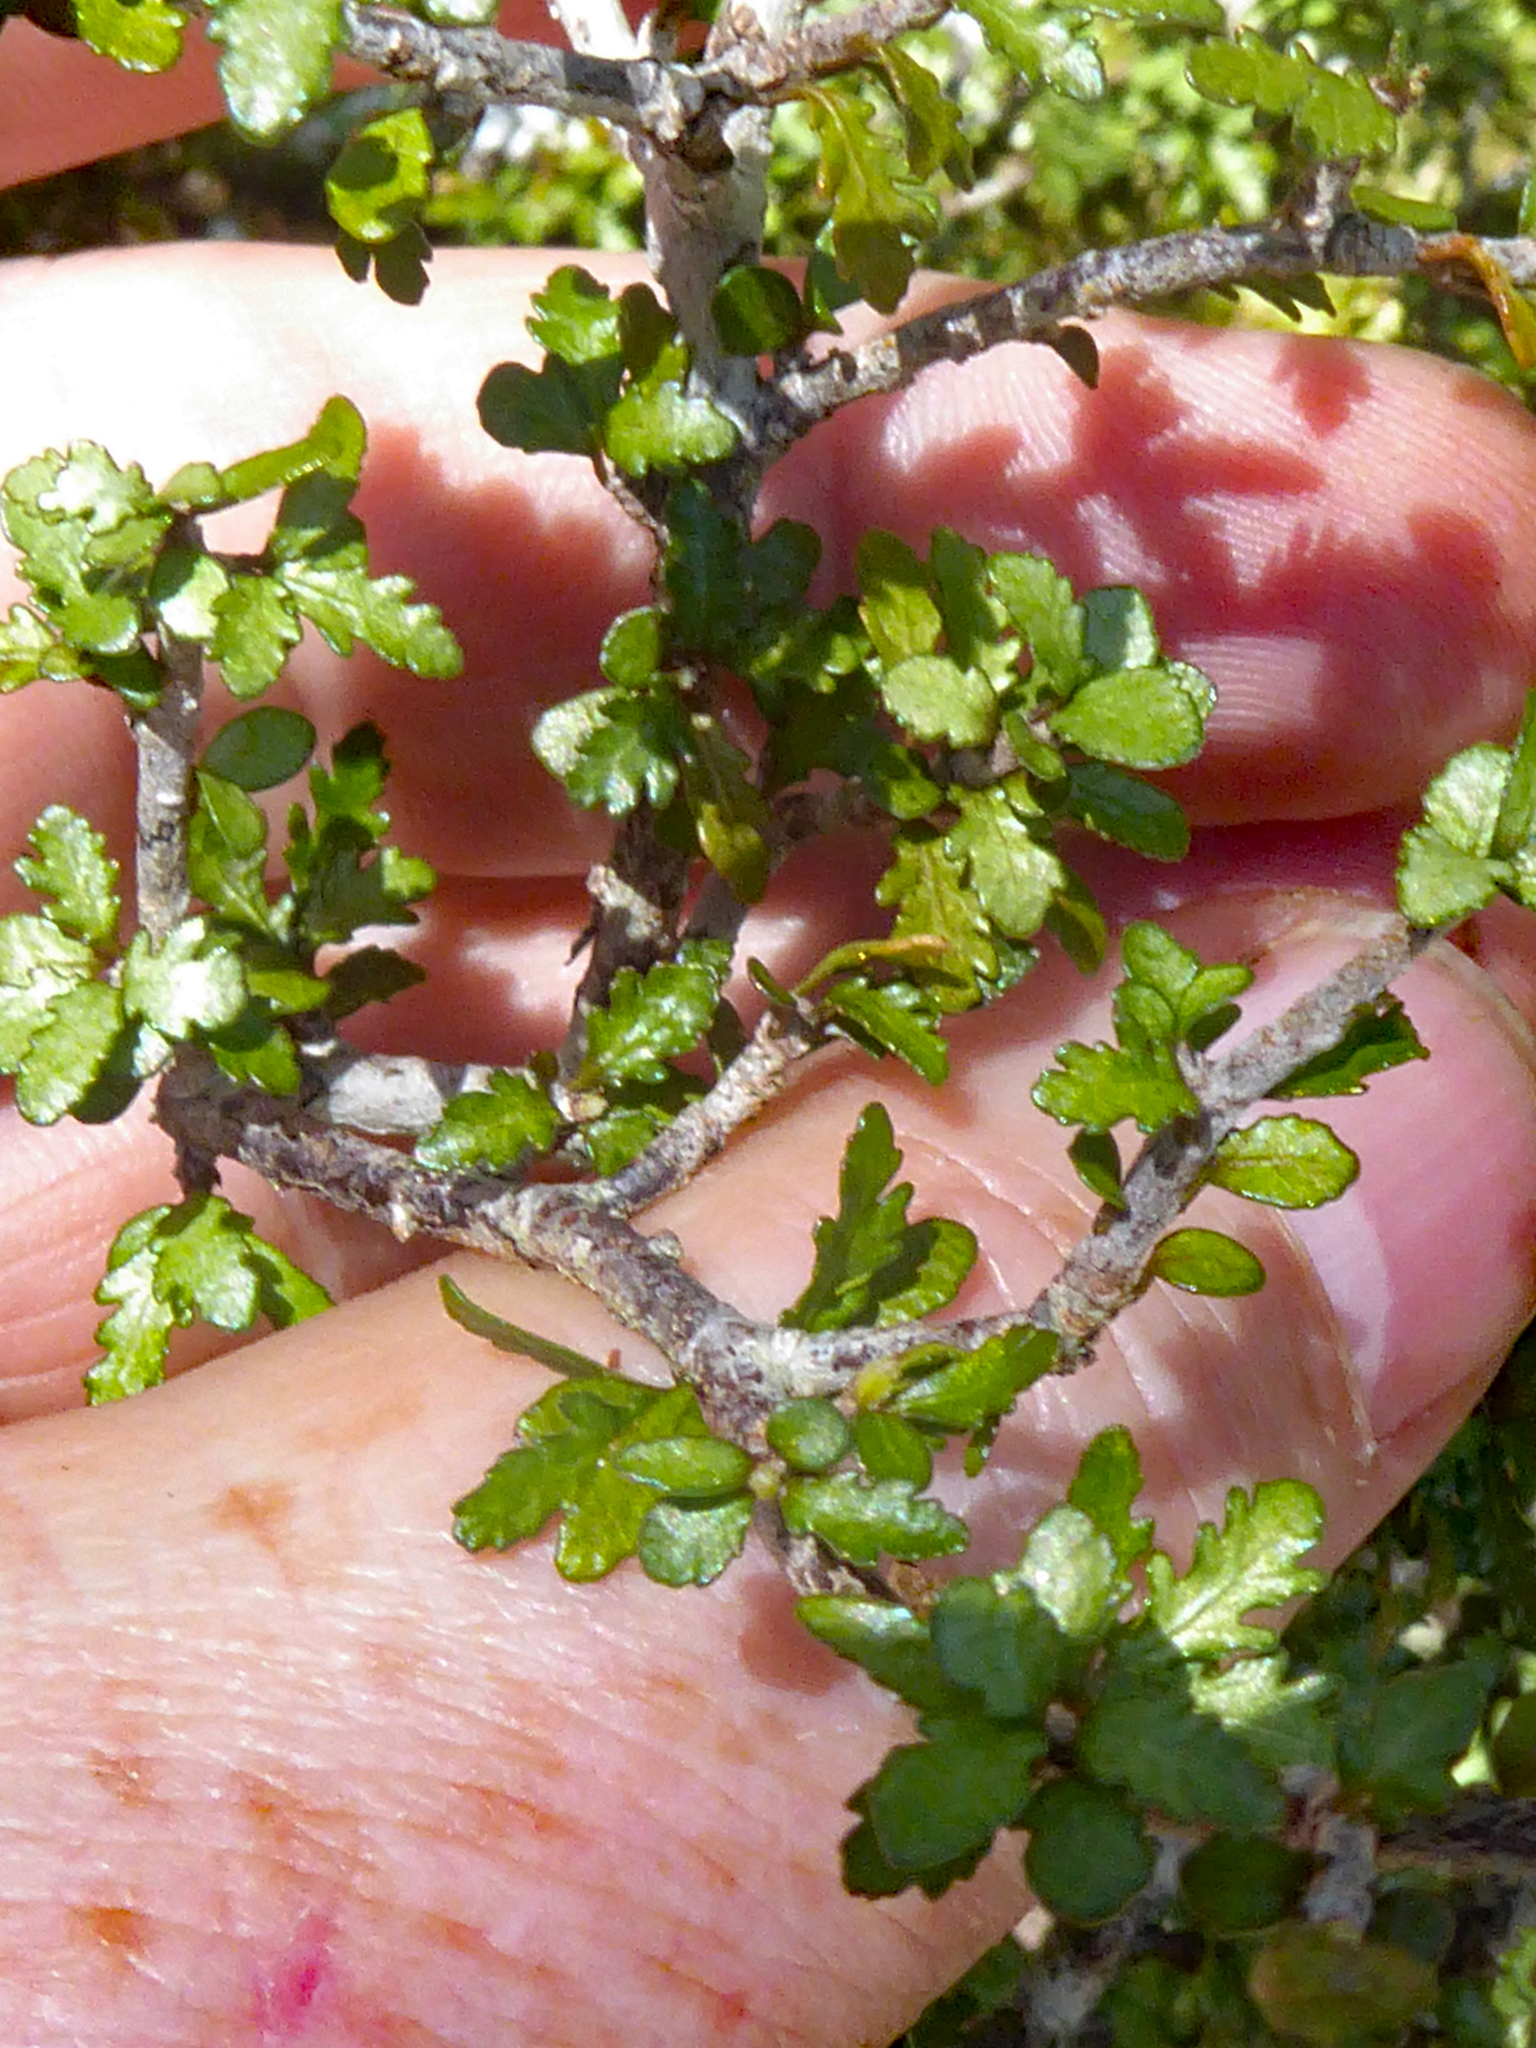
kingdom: Plantae
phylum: Tracheophyta
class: Magnoliopsida
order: Apiales
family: Pittosporaceae
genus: Pittosporum
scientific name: Pittosporum rigidum
